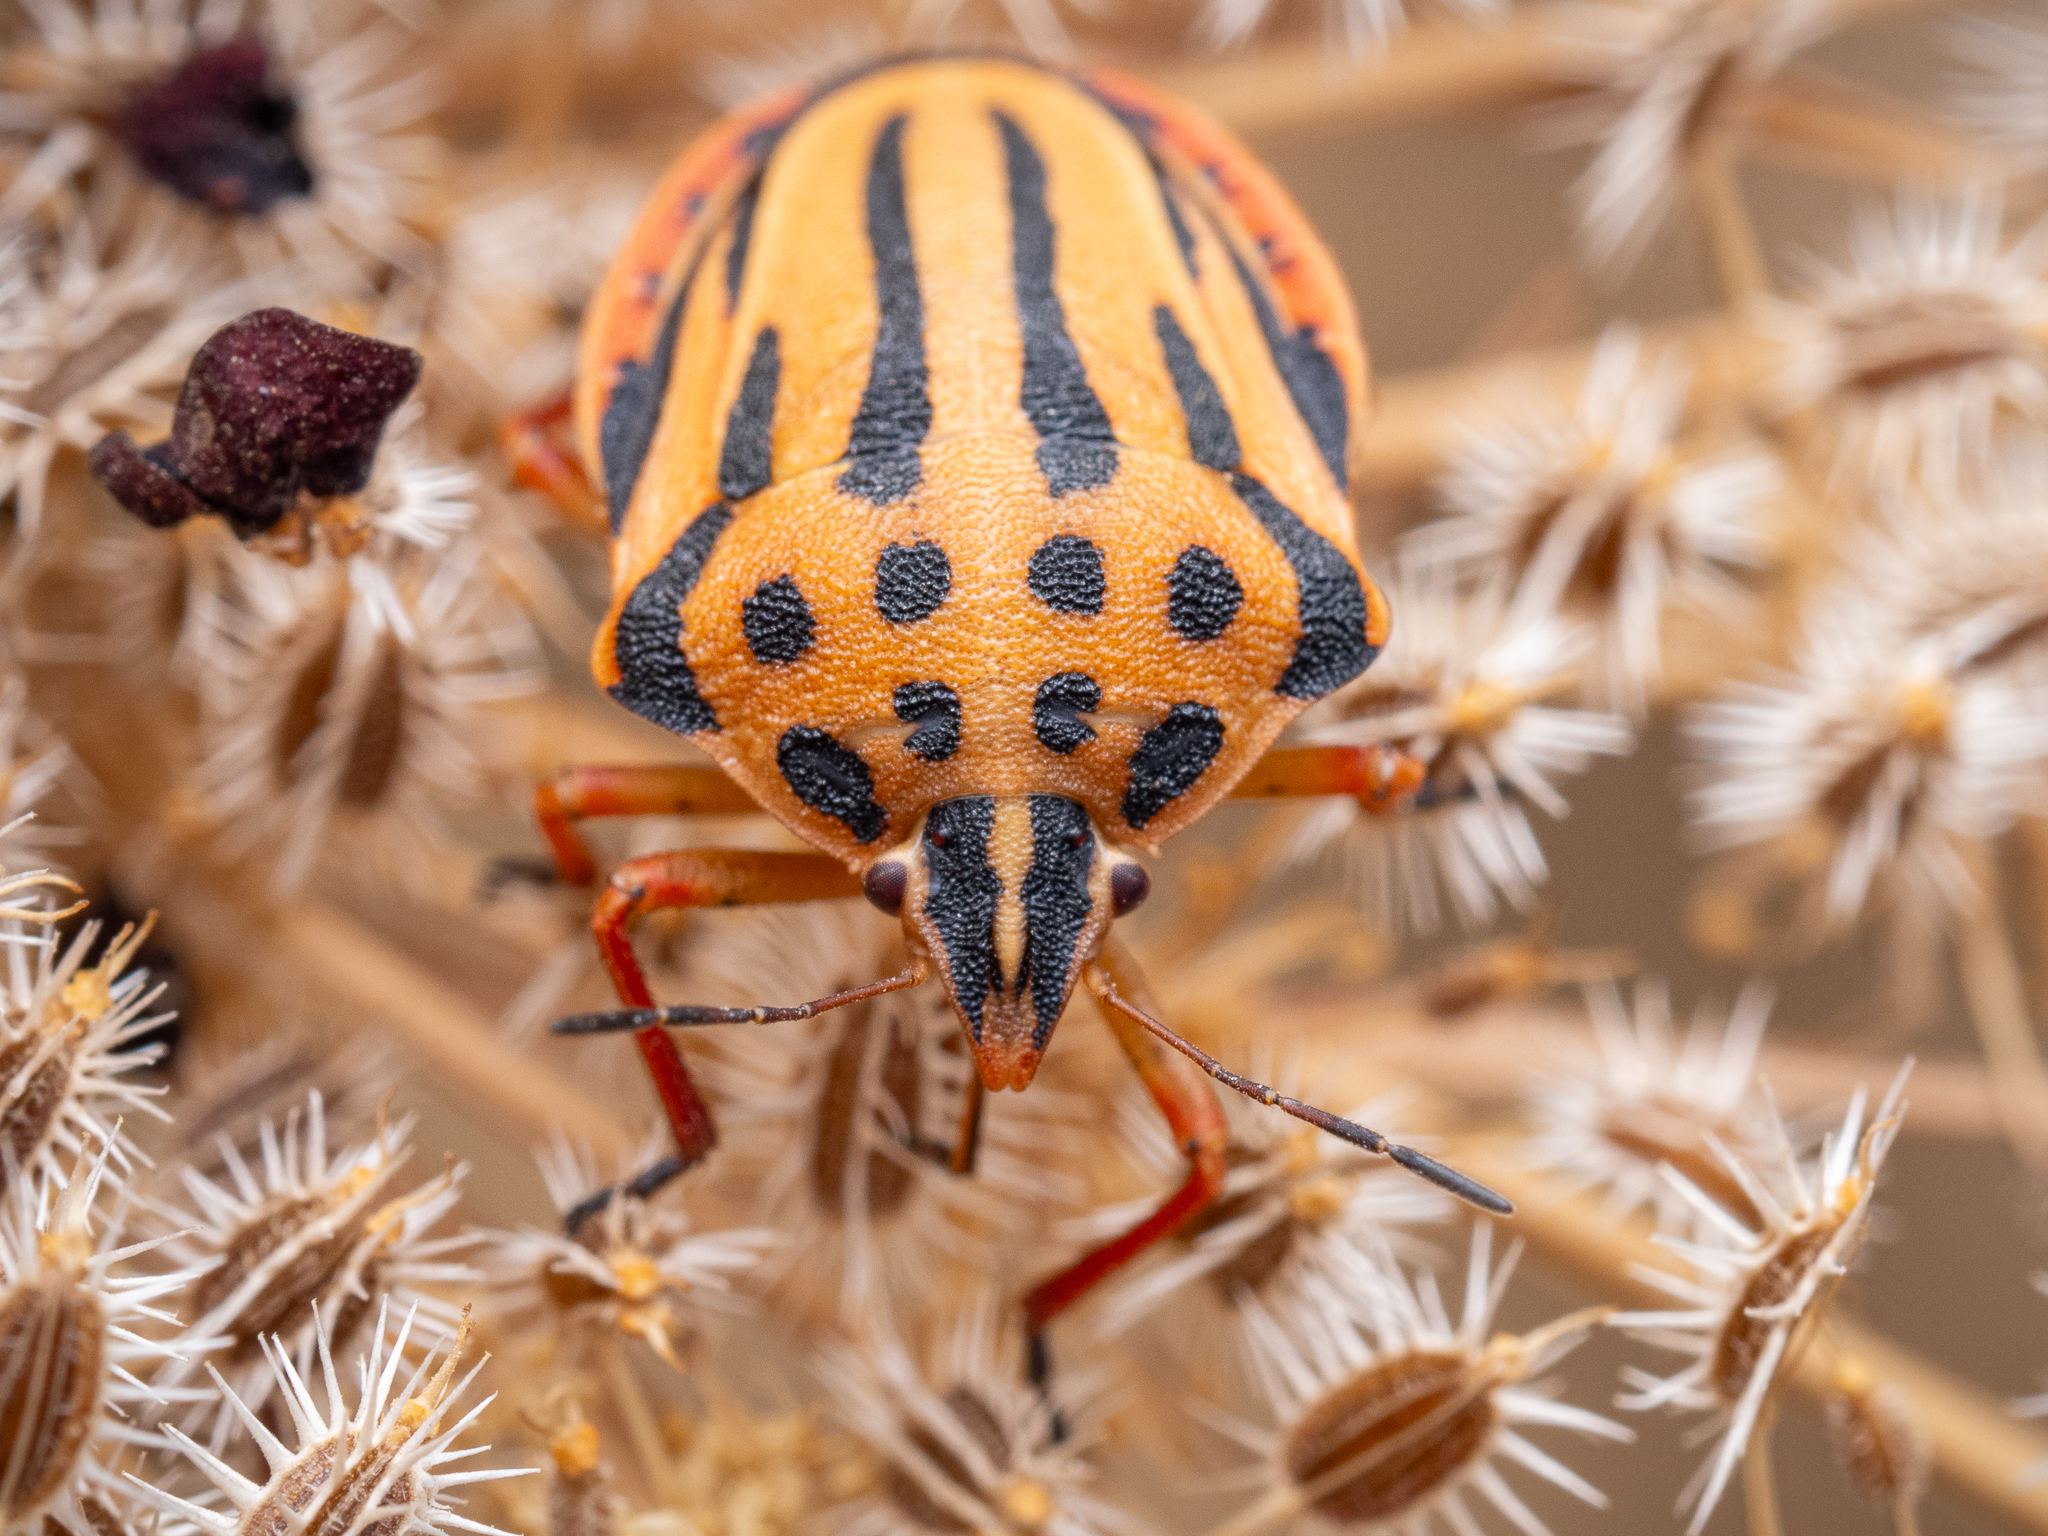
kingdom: Animalia
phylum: Arthropoda
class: Insecta
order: Hemiptera
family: Pentatomidae
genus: Graphosoma
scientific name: Graphosoma semipunctatum
